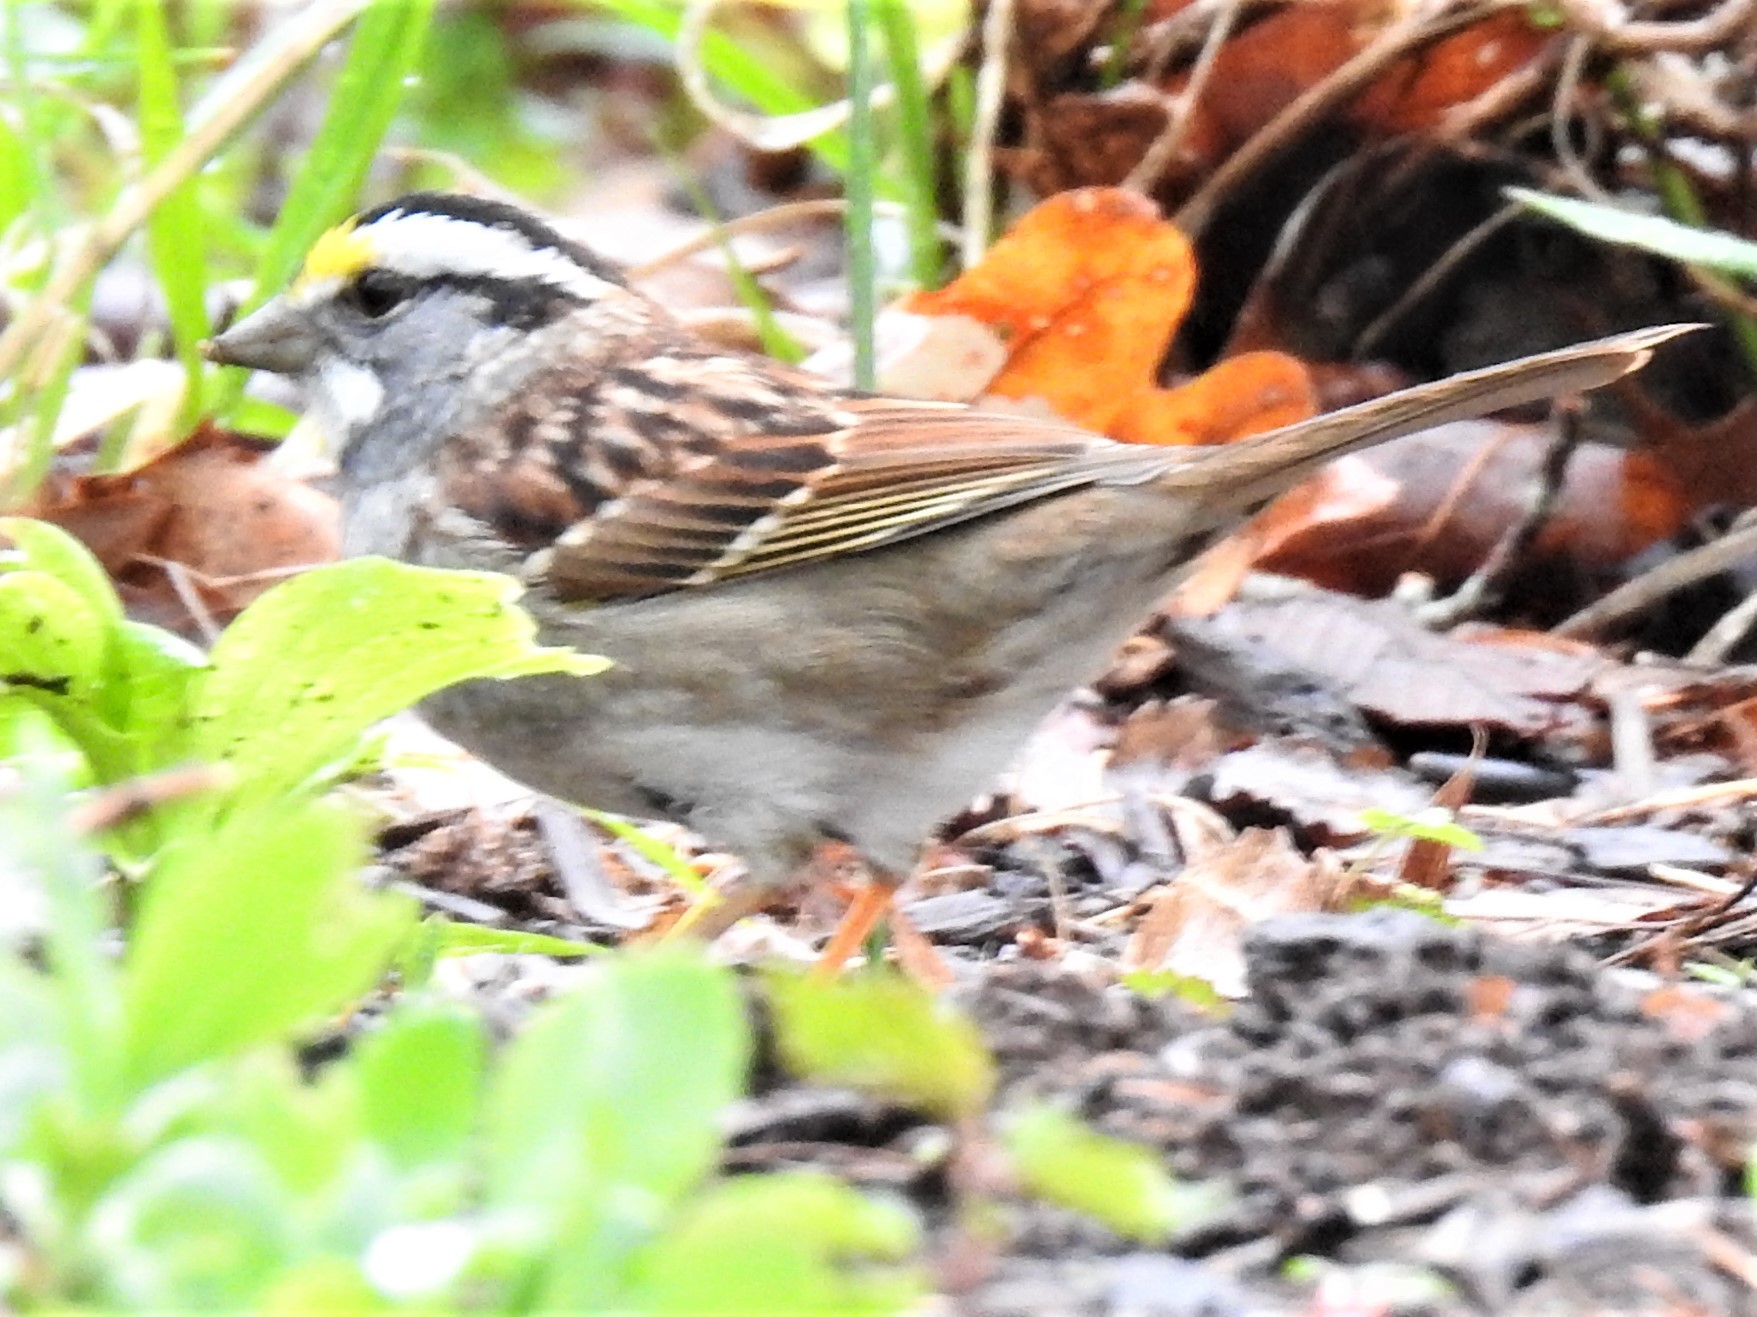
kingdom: Animalia
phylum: Chordata
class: Aves
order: Passeriformes
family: Passerellidae
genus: Zonotrichia
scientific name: Zonotrichia albicollis
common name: White-throated sparrow
